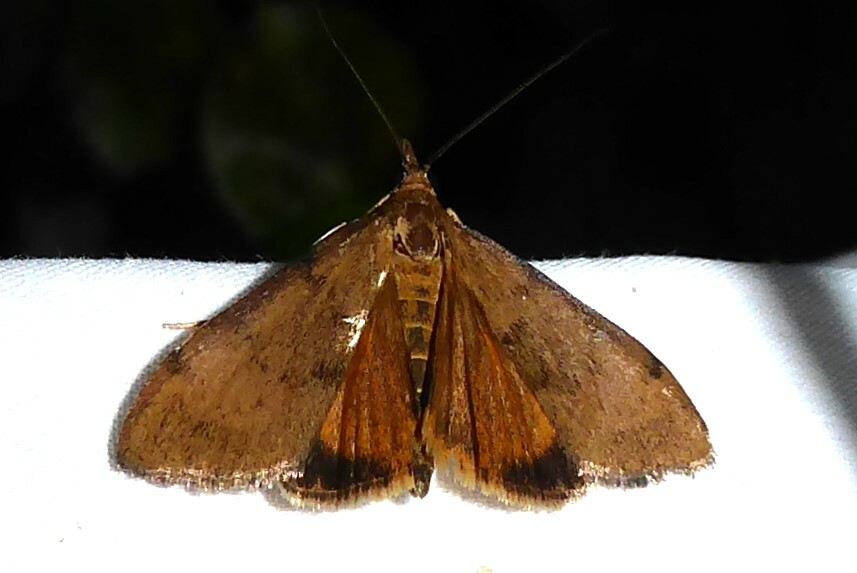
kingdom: Animalia
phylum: Arthropoda
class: Insecta
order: Lepidoptera
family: Crambidae
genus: Uresiphita
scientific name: Uresiphita
